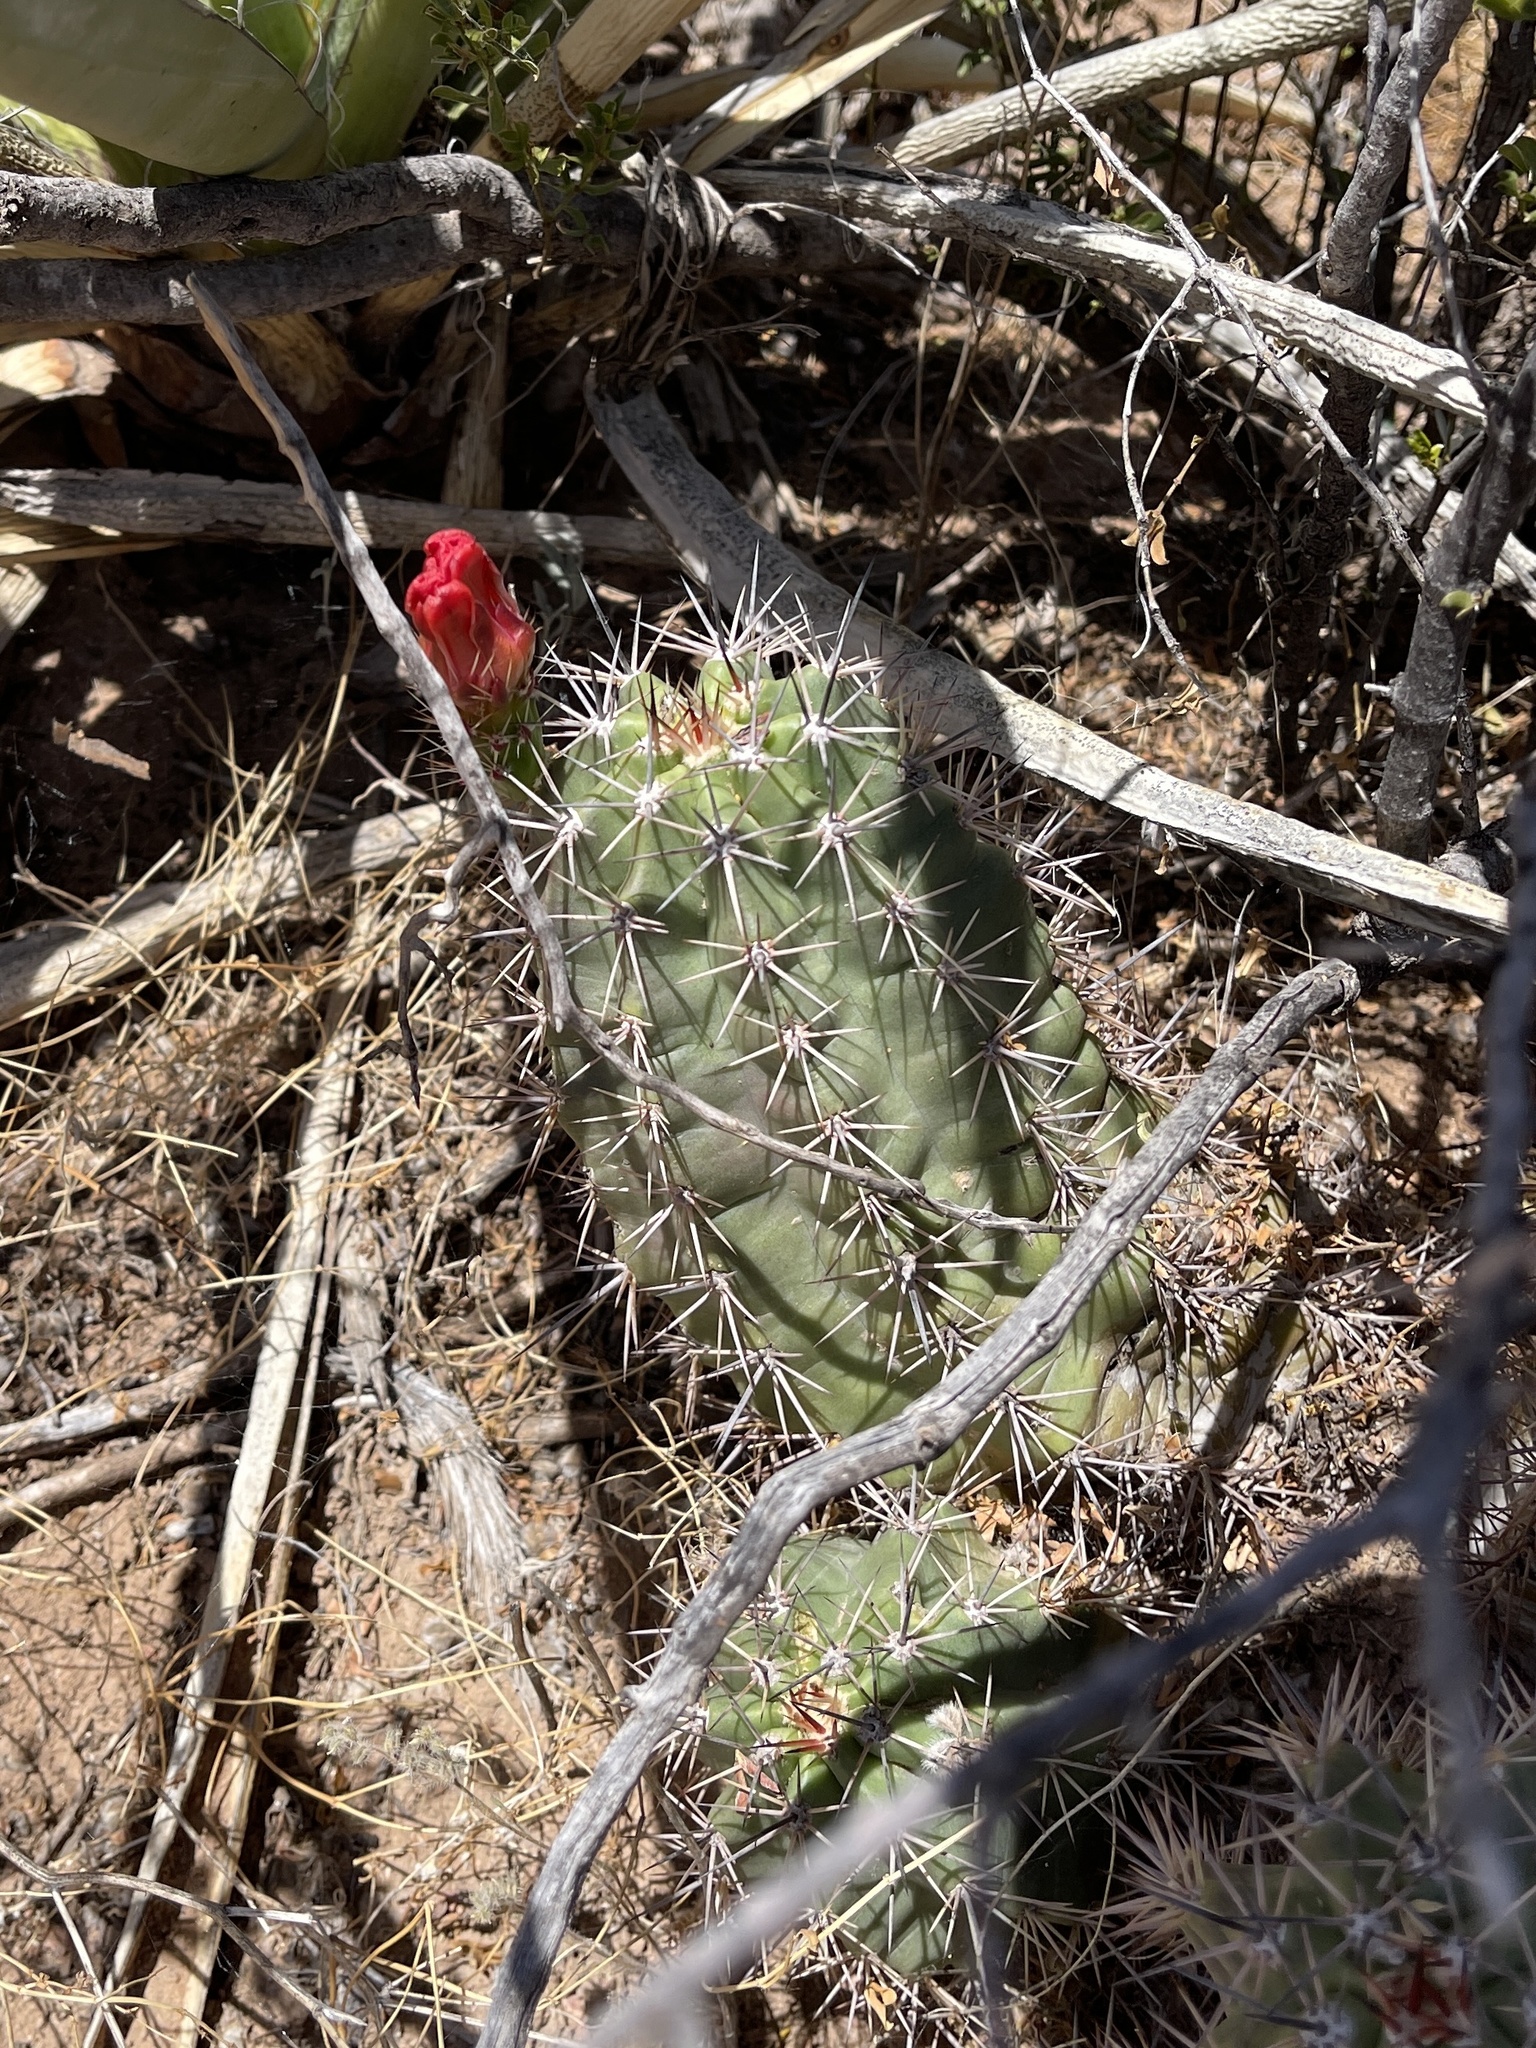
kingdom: Plantae
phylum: Tracheophyta
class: Magnoliopsida
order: Caryophyllales
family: Cactaceae
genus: Echinocereus
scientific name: Echinocereus coccineus
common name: Scarlet hedgehog cactus
